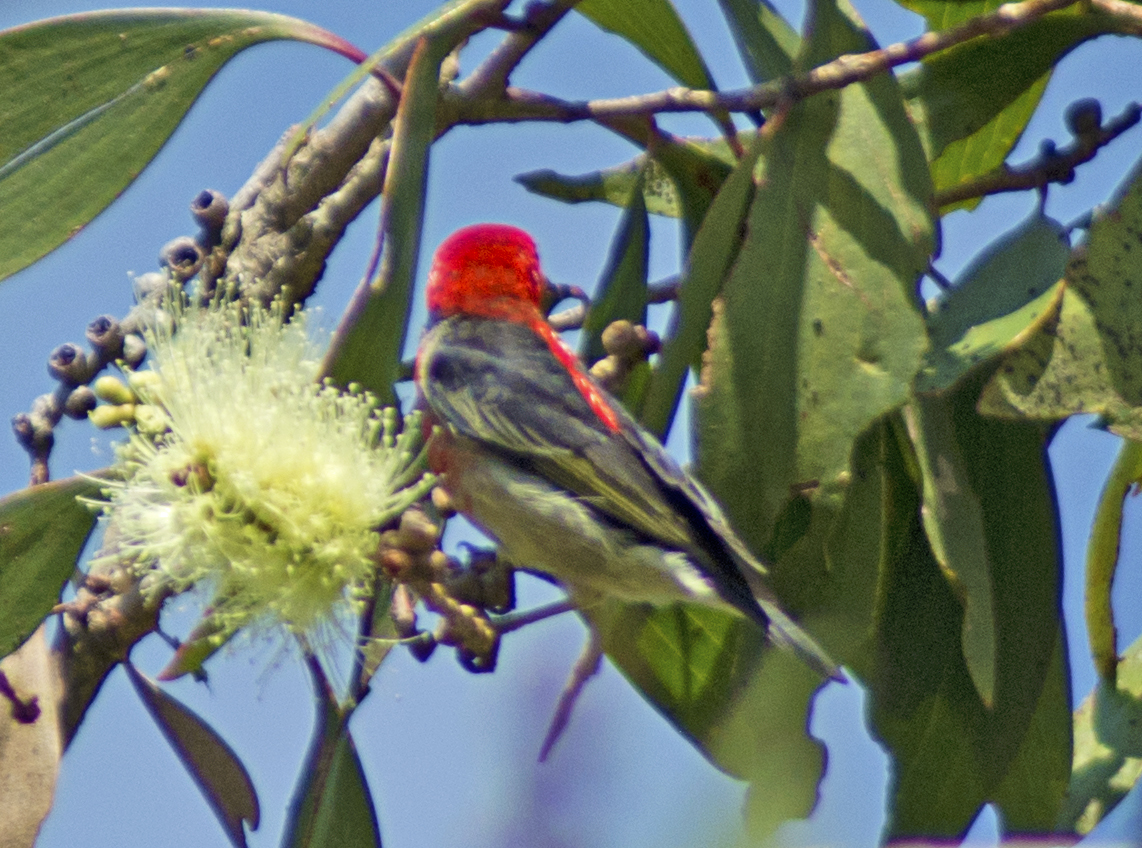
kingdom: Animalia
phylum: Chordata
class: Aves
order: Passeriformes
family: Meliphagidae
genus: Myzomela
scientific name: Myzomela sanguinolenta
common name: Scarlet myzomela
